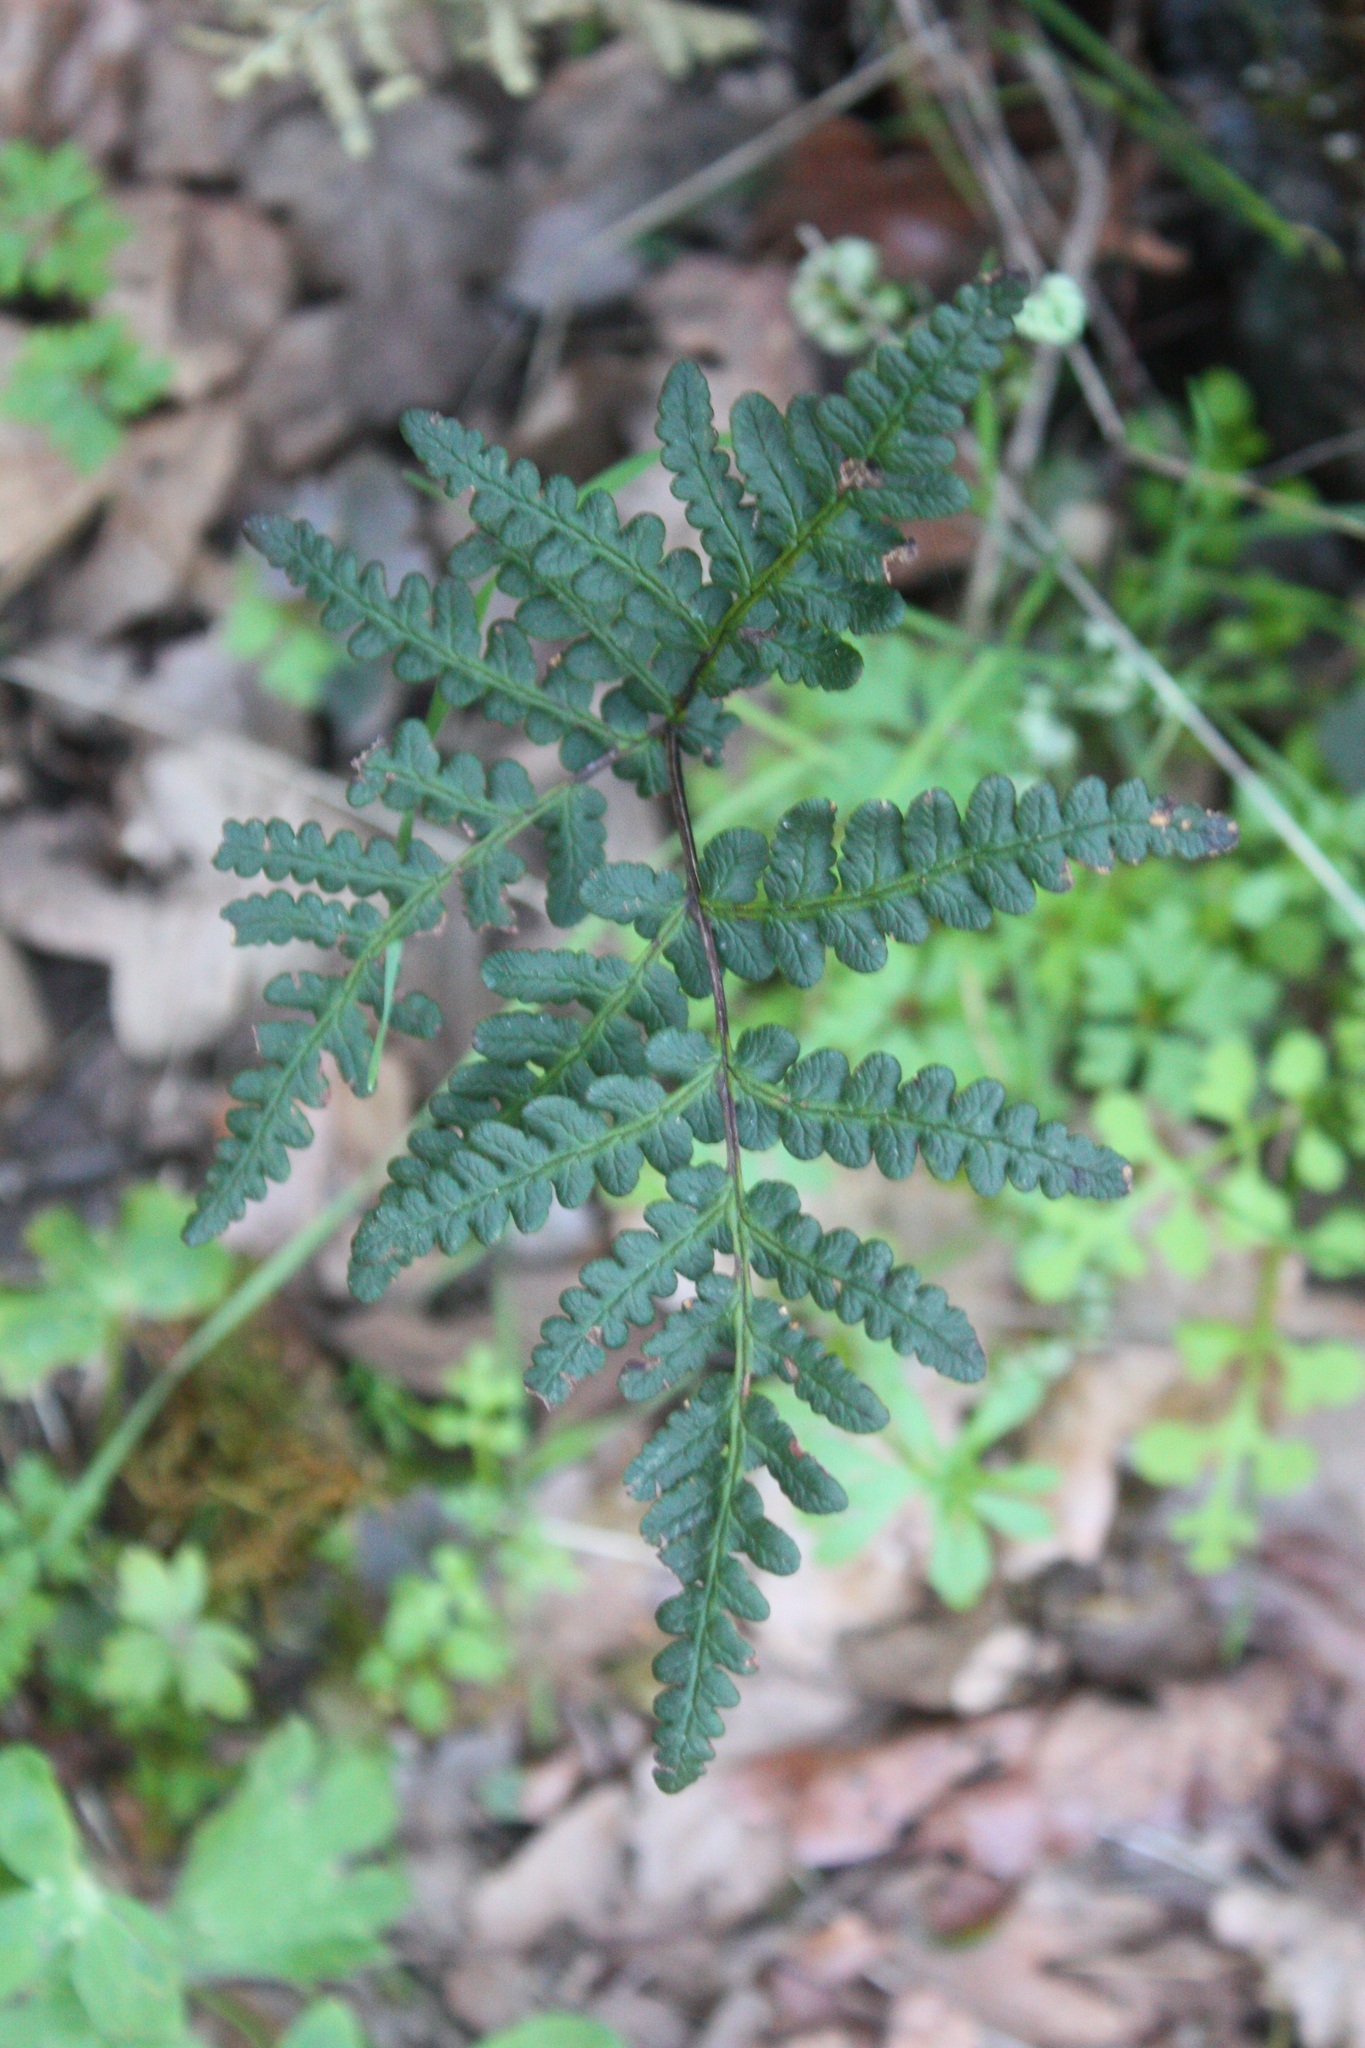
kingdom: Plantae
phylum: Tracheophyta
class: Polypodiopsida
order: Polypodiales
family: Pteridaceae
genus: Pentagramma
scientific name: Pentagramma triangularis
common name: Gold fern
